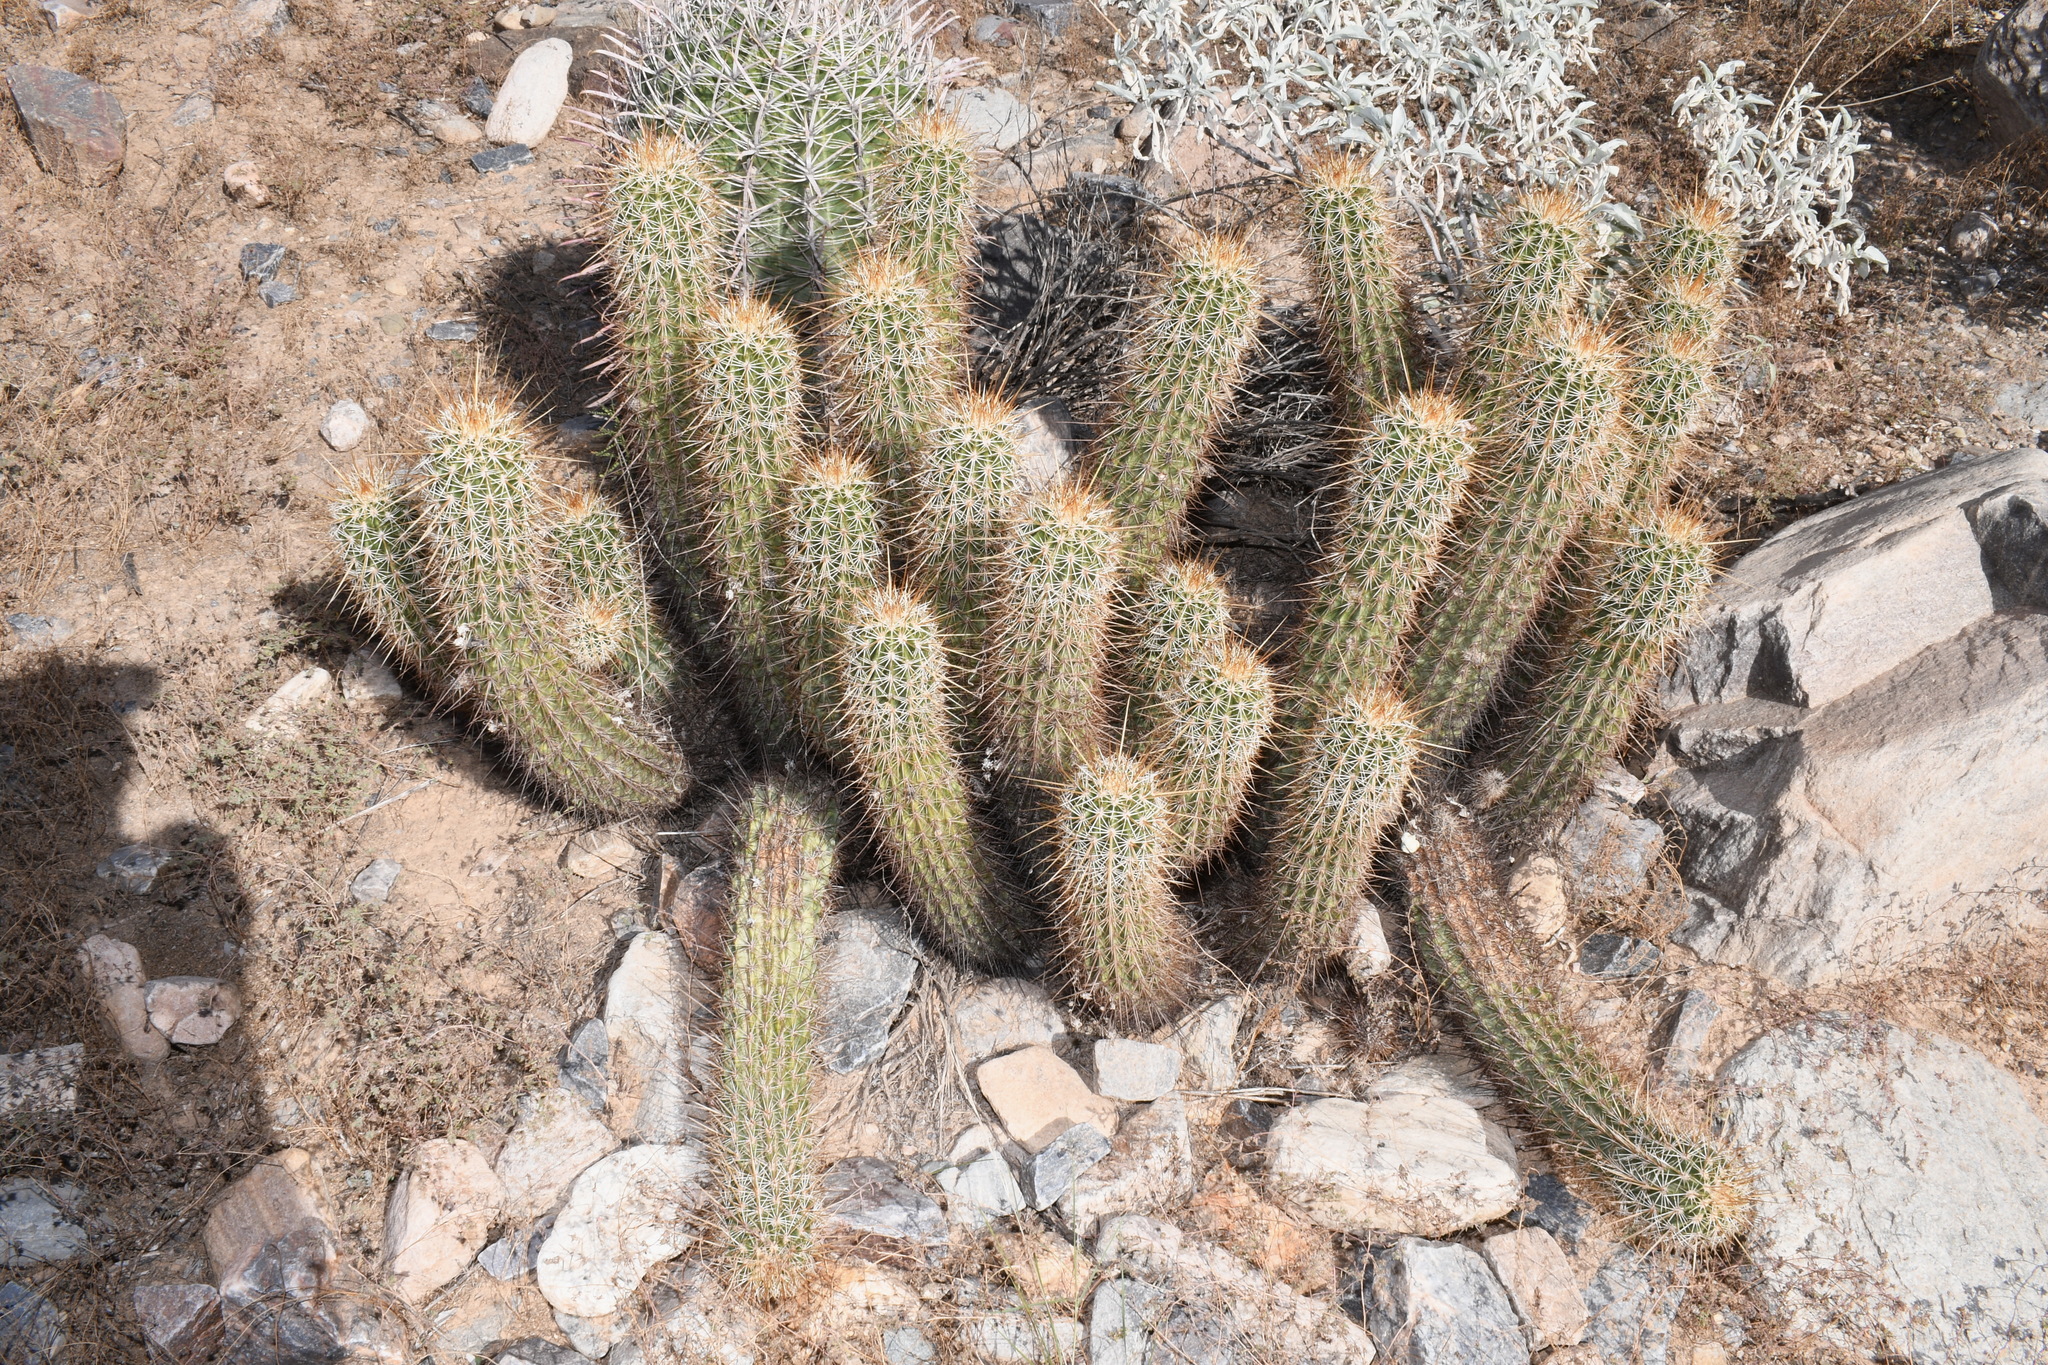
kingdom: Plantae
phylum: Tracheophyta
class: Magnoliopsida
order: Caryophyllales
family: Cactaceae
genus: Echinocereus
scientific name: Echinocereus engelmannii
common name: Engelmann's hedgehog cactus
